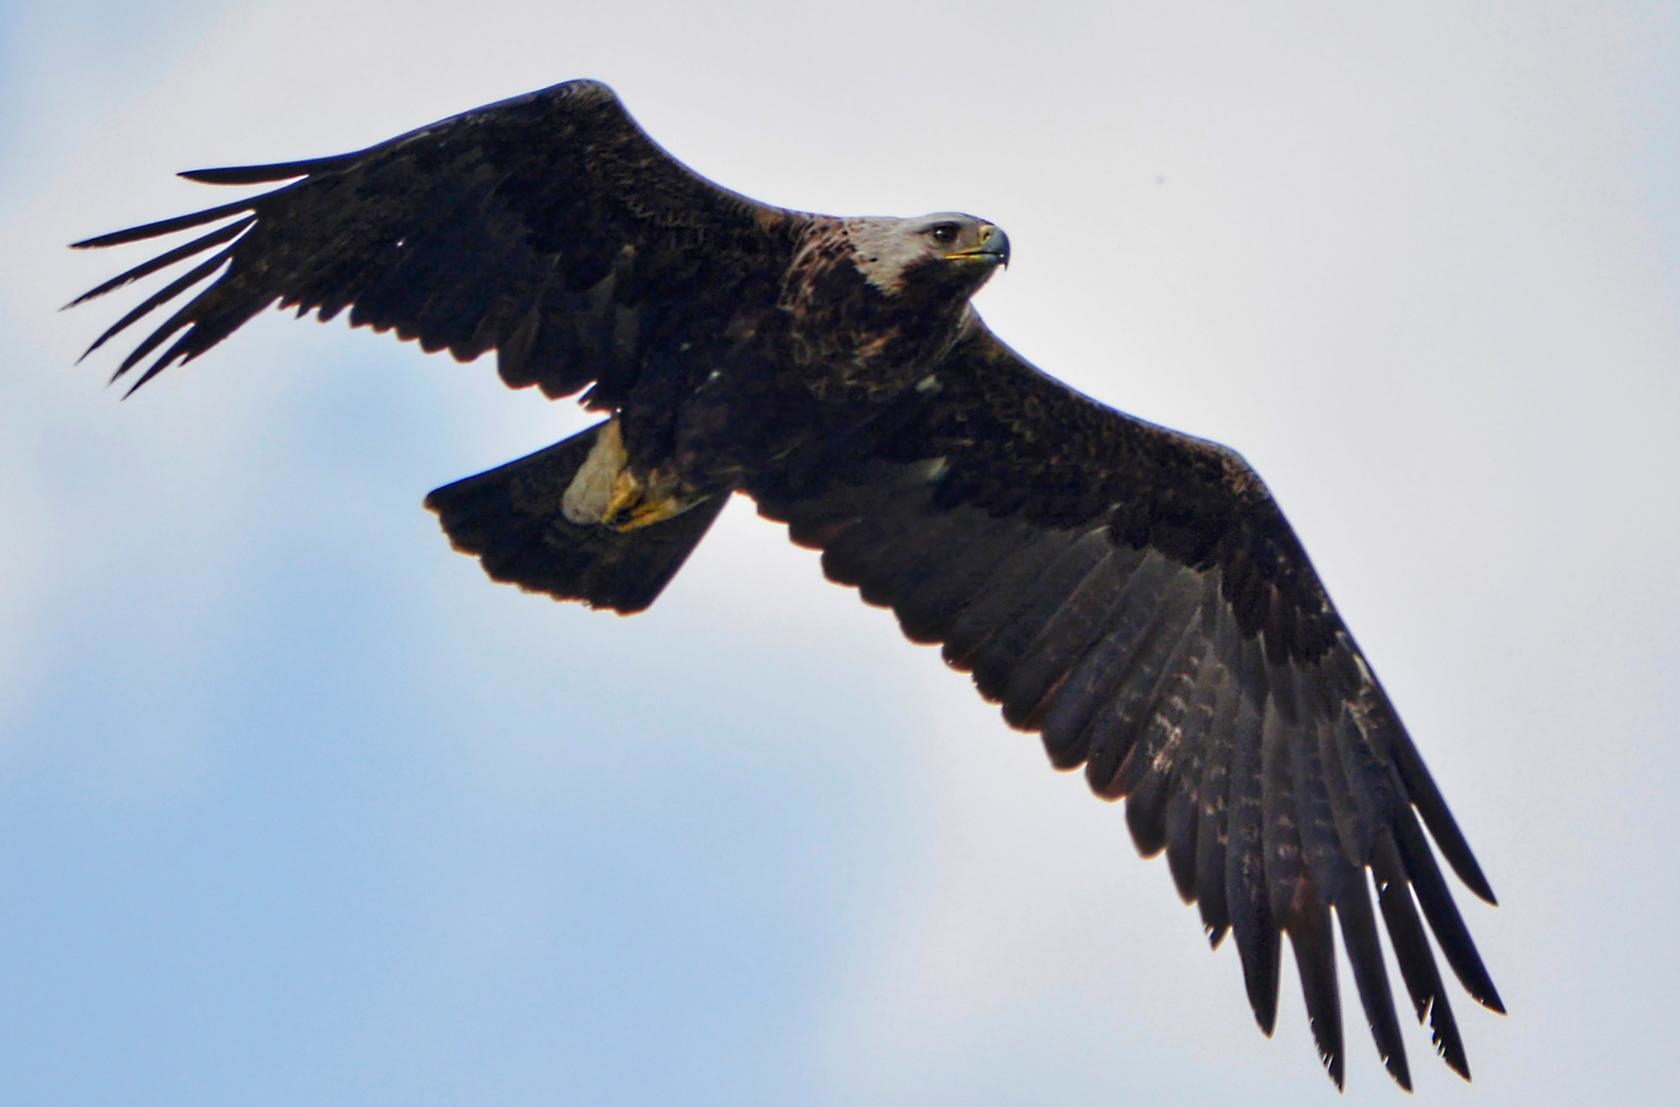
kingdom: Animalia
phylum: Chordata
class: Aves
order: Accipitriformes
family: Accipitridae
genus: Aquila
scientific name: Aquila heliaca
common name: Eastern imperial eagle
